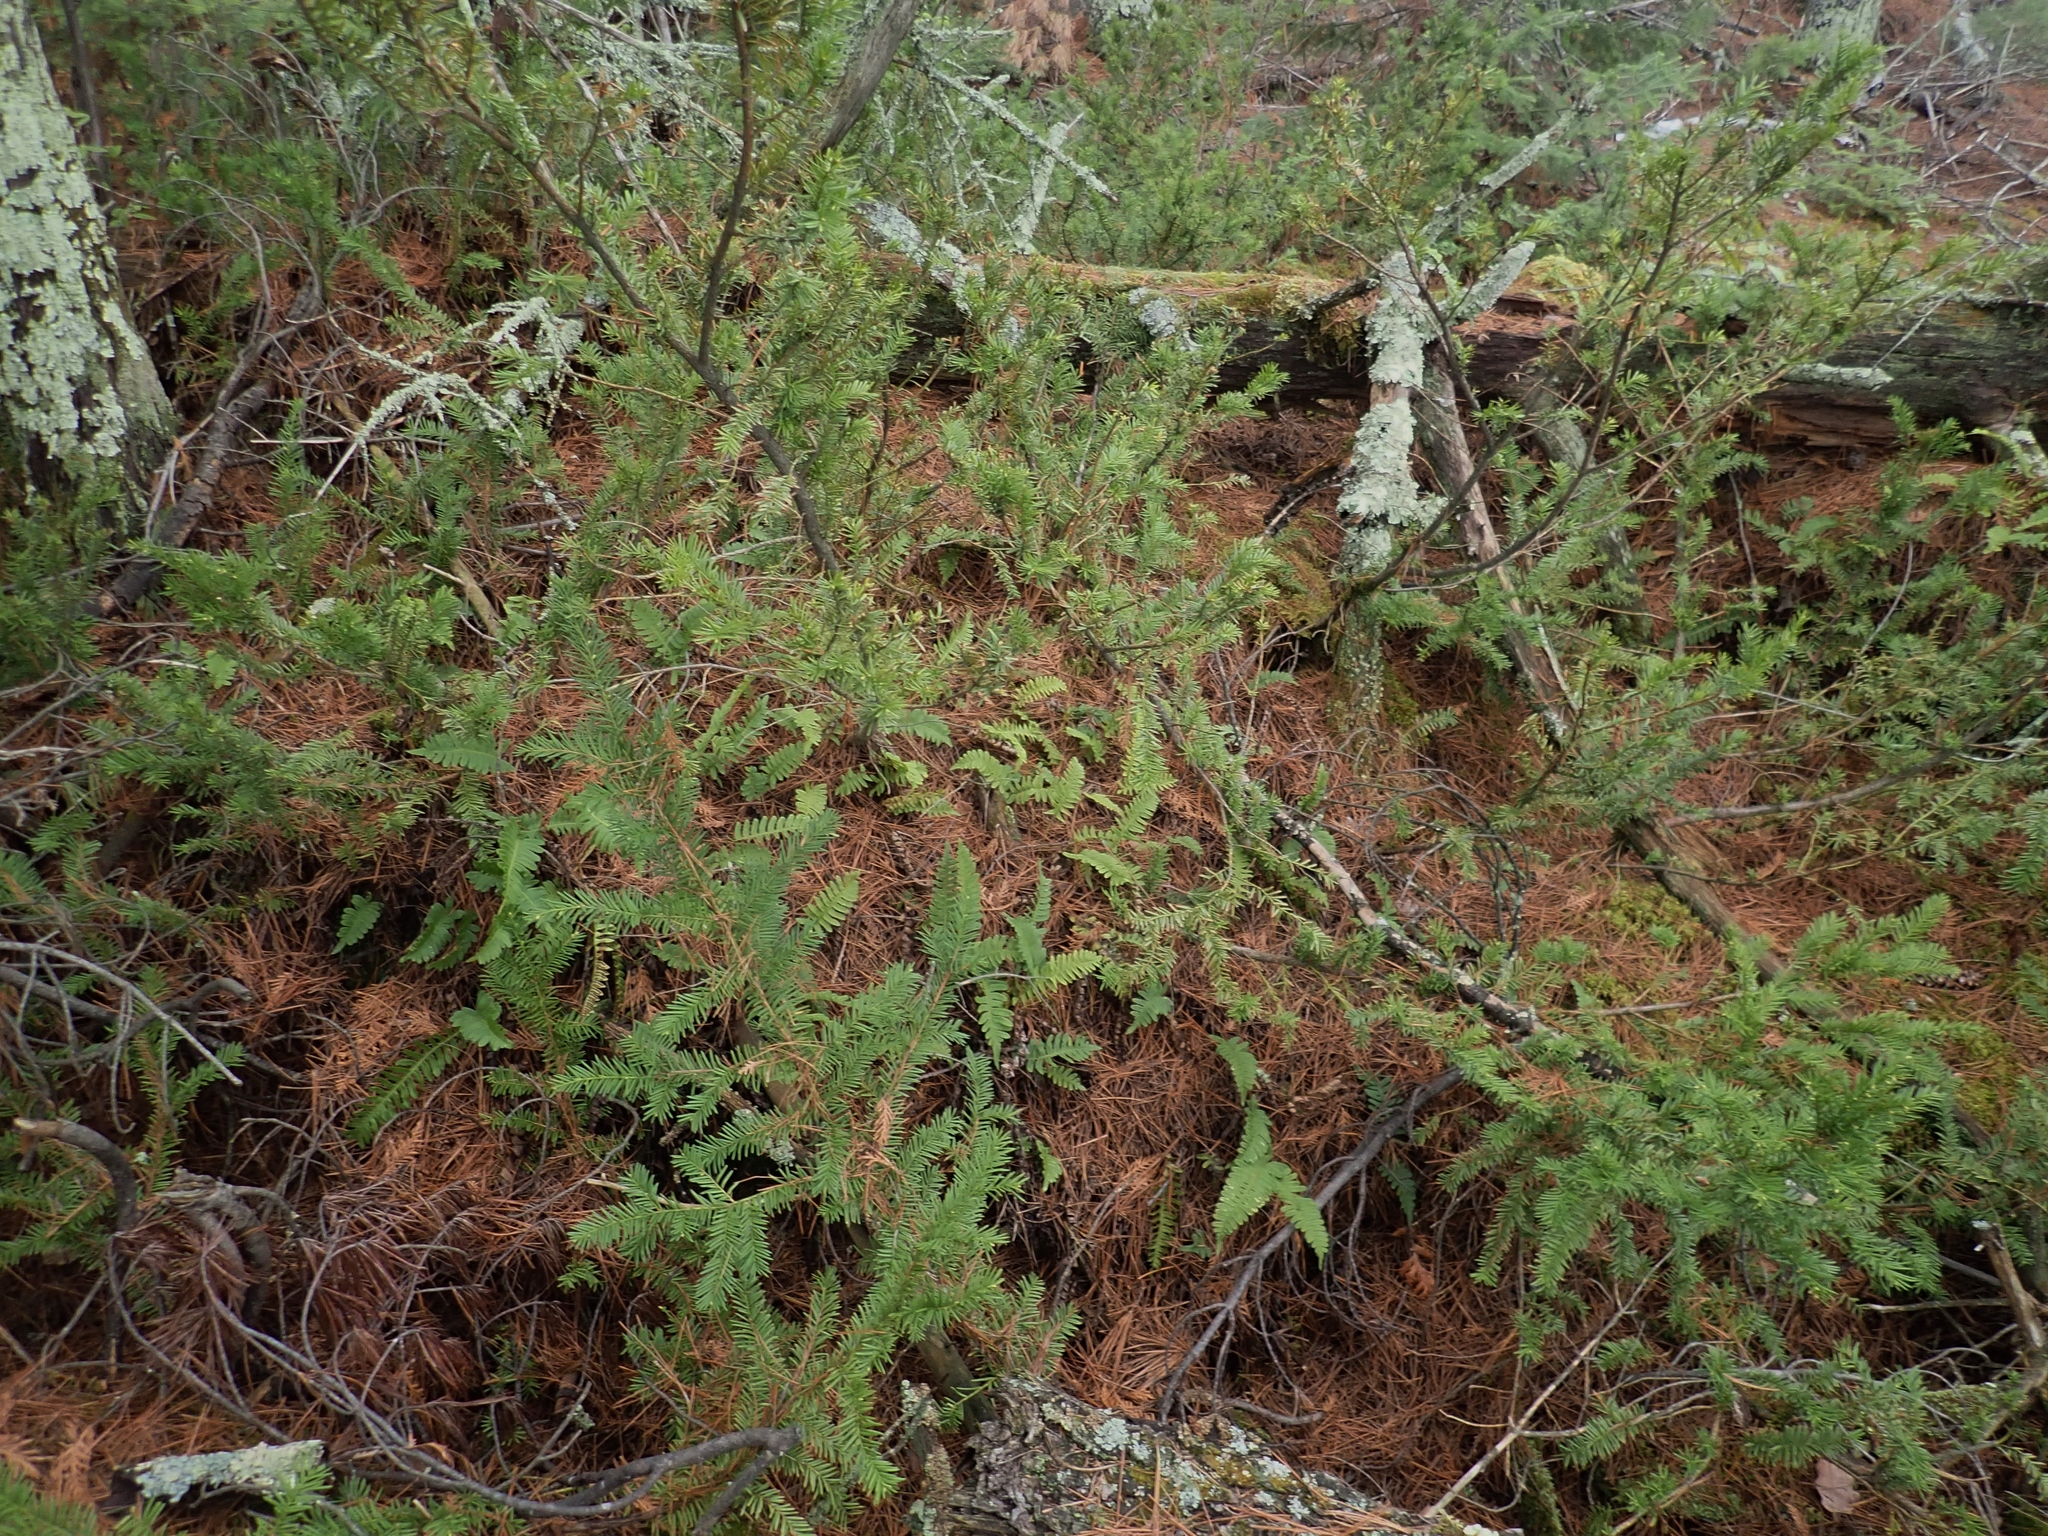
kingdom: Plantae
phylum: Tracheophyta
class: Pinopsida
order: Pinales
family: Taxaceae
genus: Taxus
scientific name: Taxus canadensis
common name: American yew
